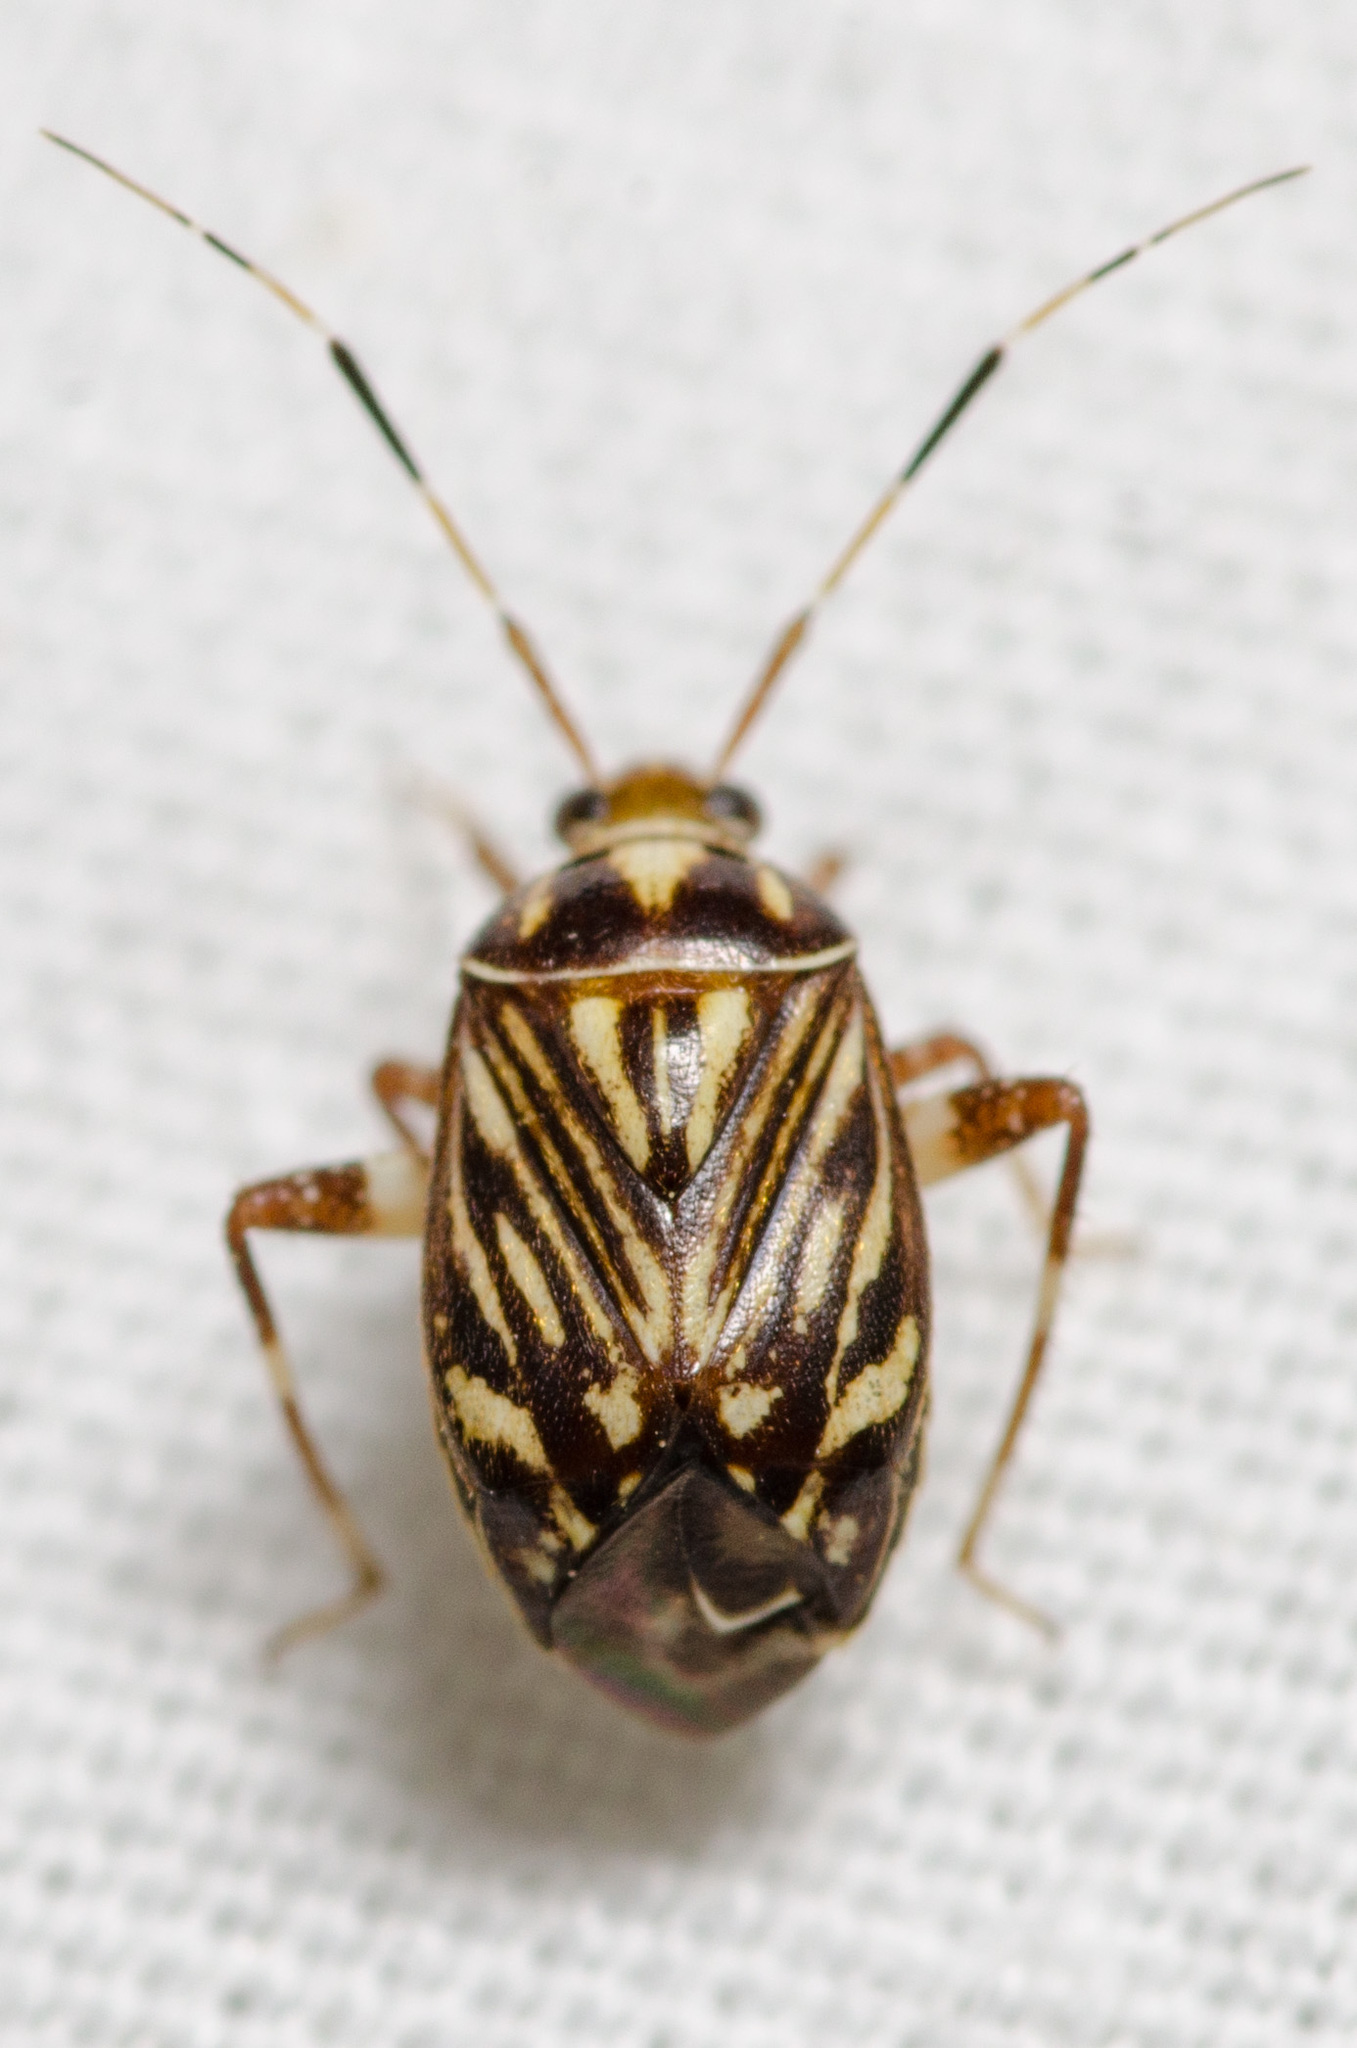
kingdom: Animalia
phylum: Arthropoda
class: Insecta
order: Hemiptera
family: Miridae
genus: Taedia
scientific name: Taedia virgulata
